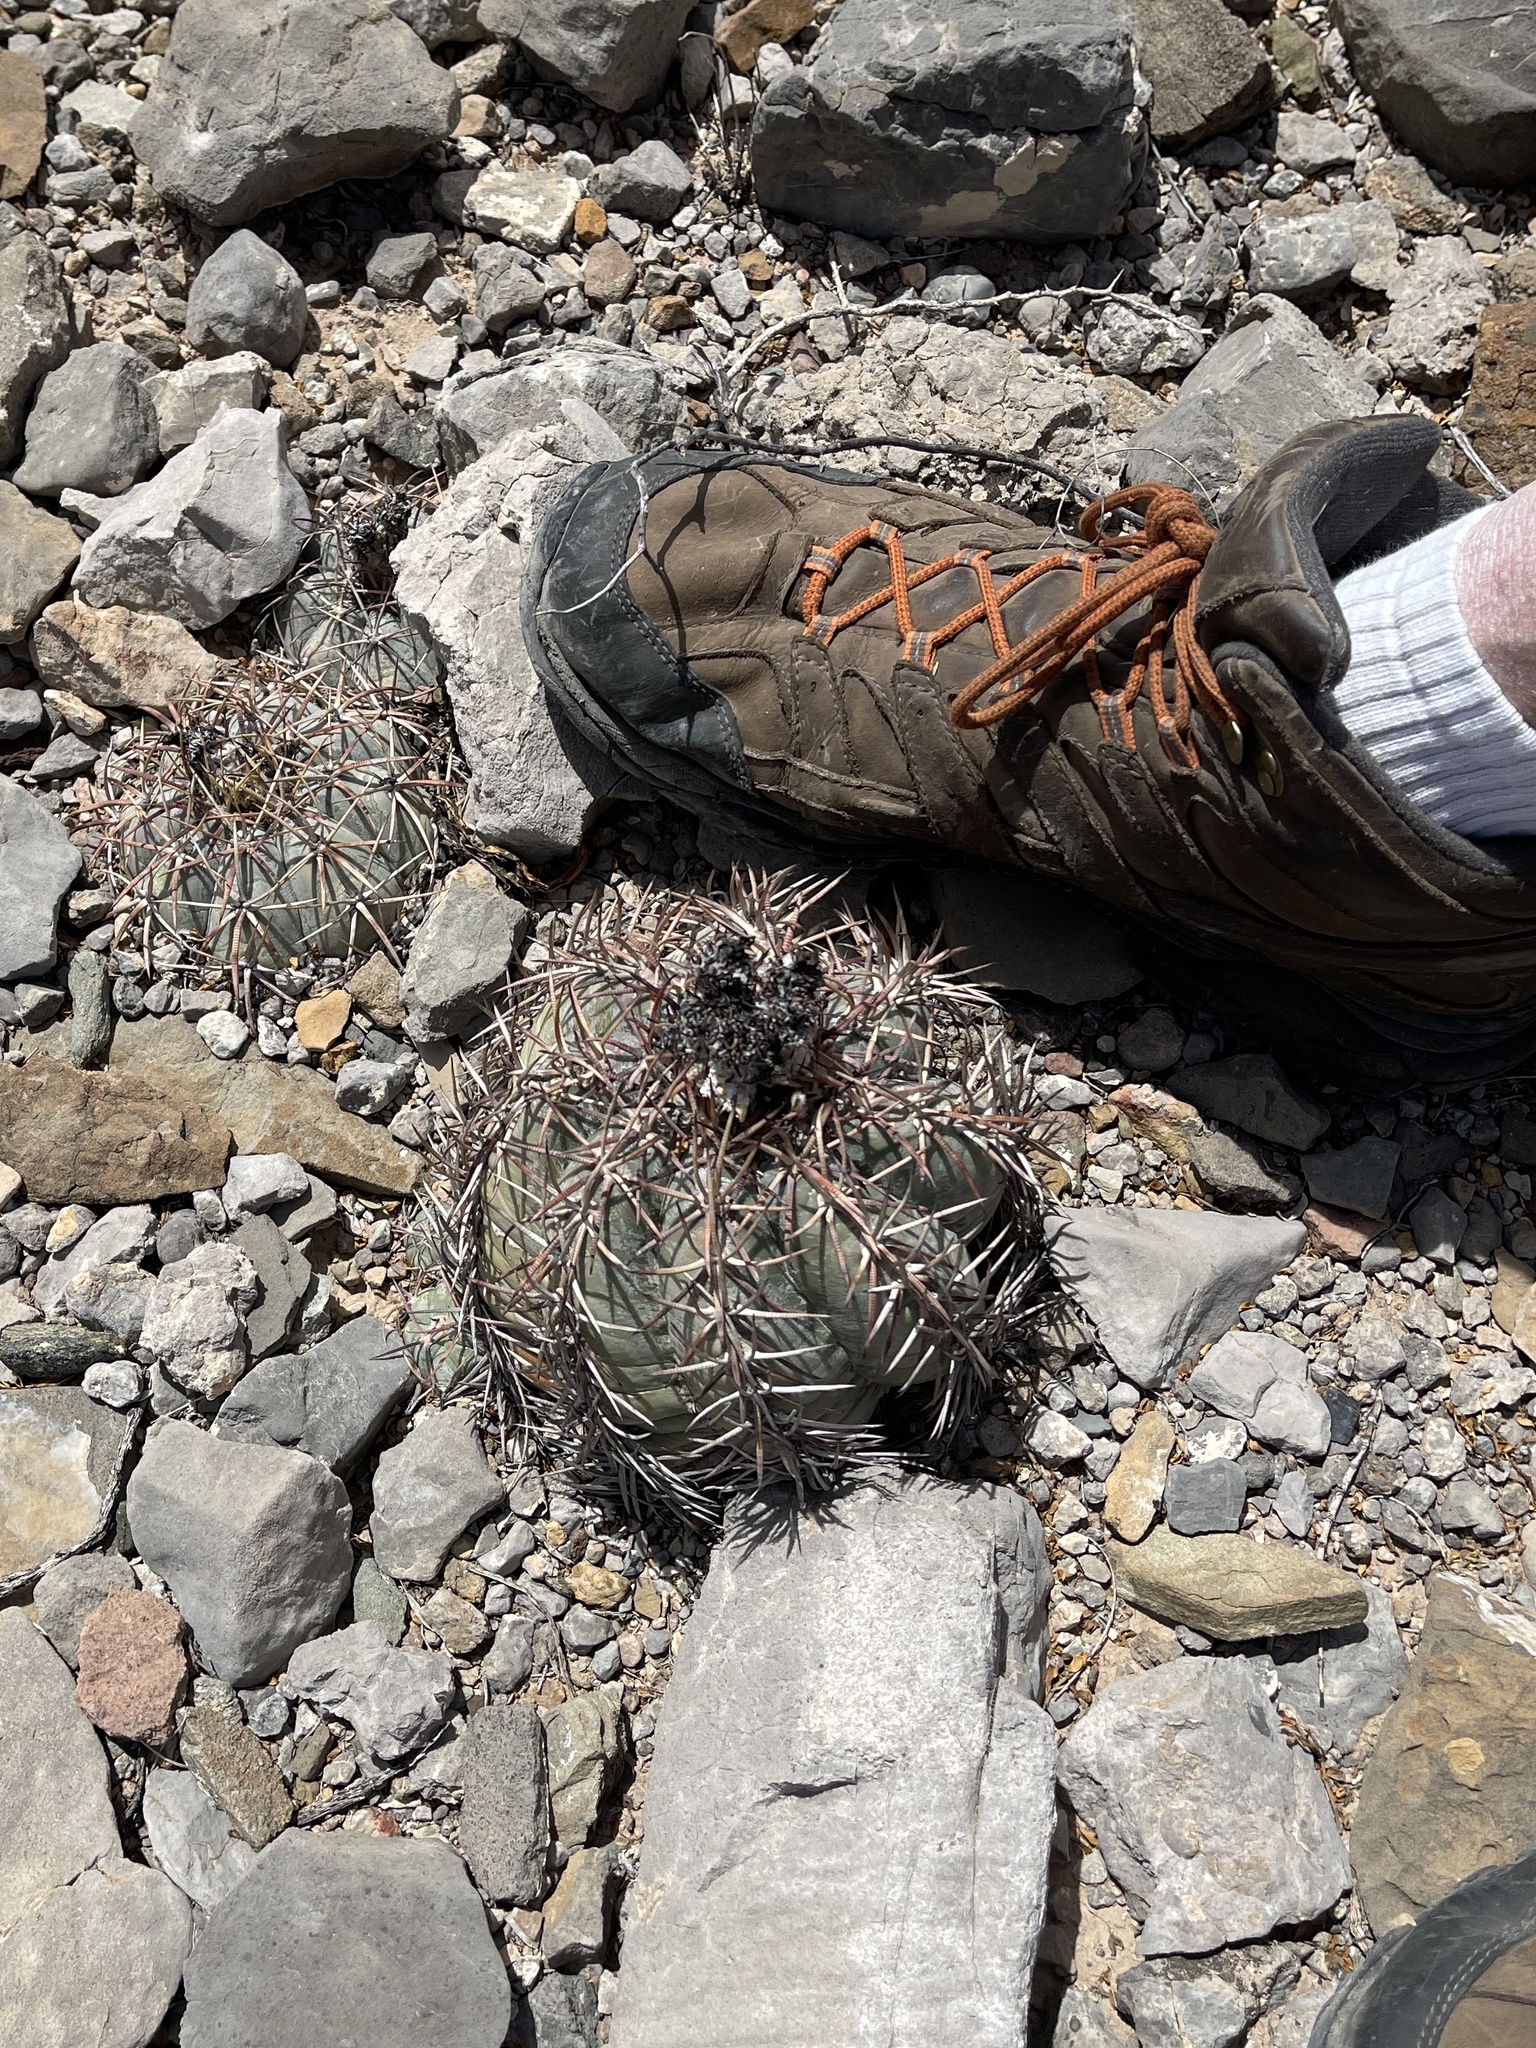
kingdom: Plantae
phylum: Tracheophyta
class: Magnoliopsida
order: Caryophyllales
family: Cactaceae
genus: Echinocactus
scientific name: Echinocactus horizonthalonius
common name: Devilshead
